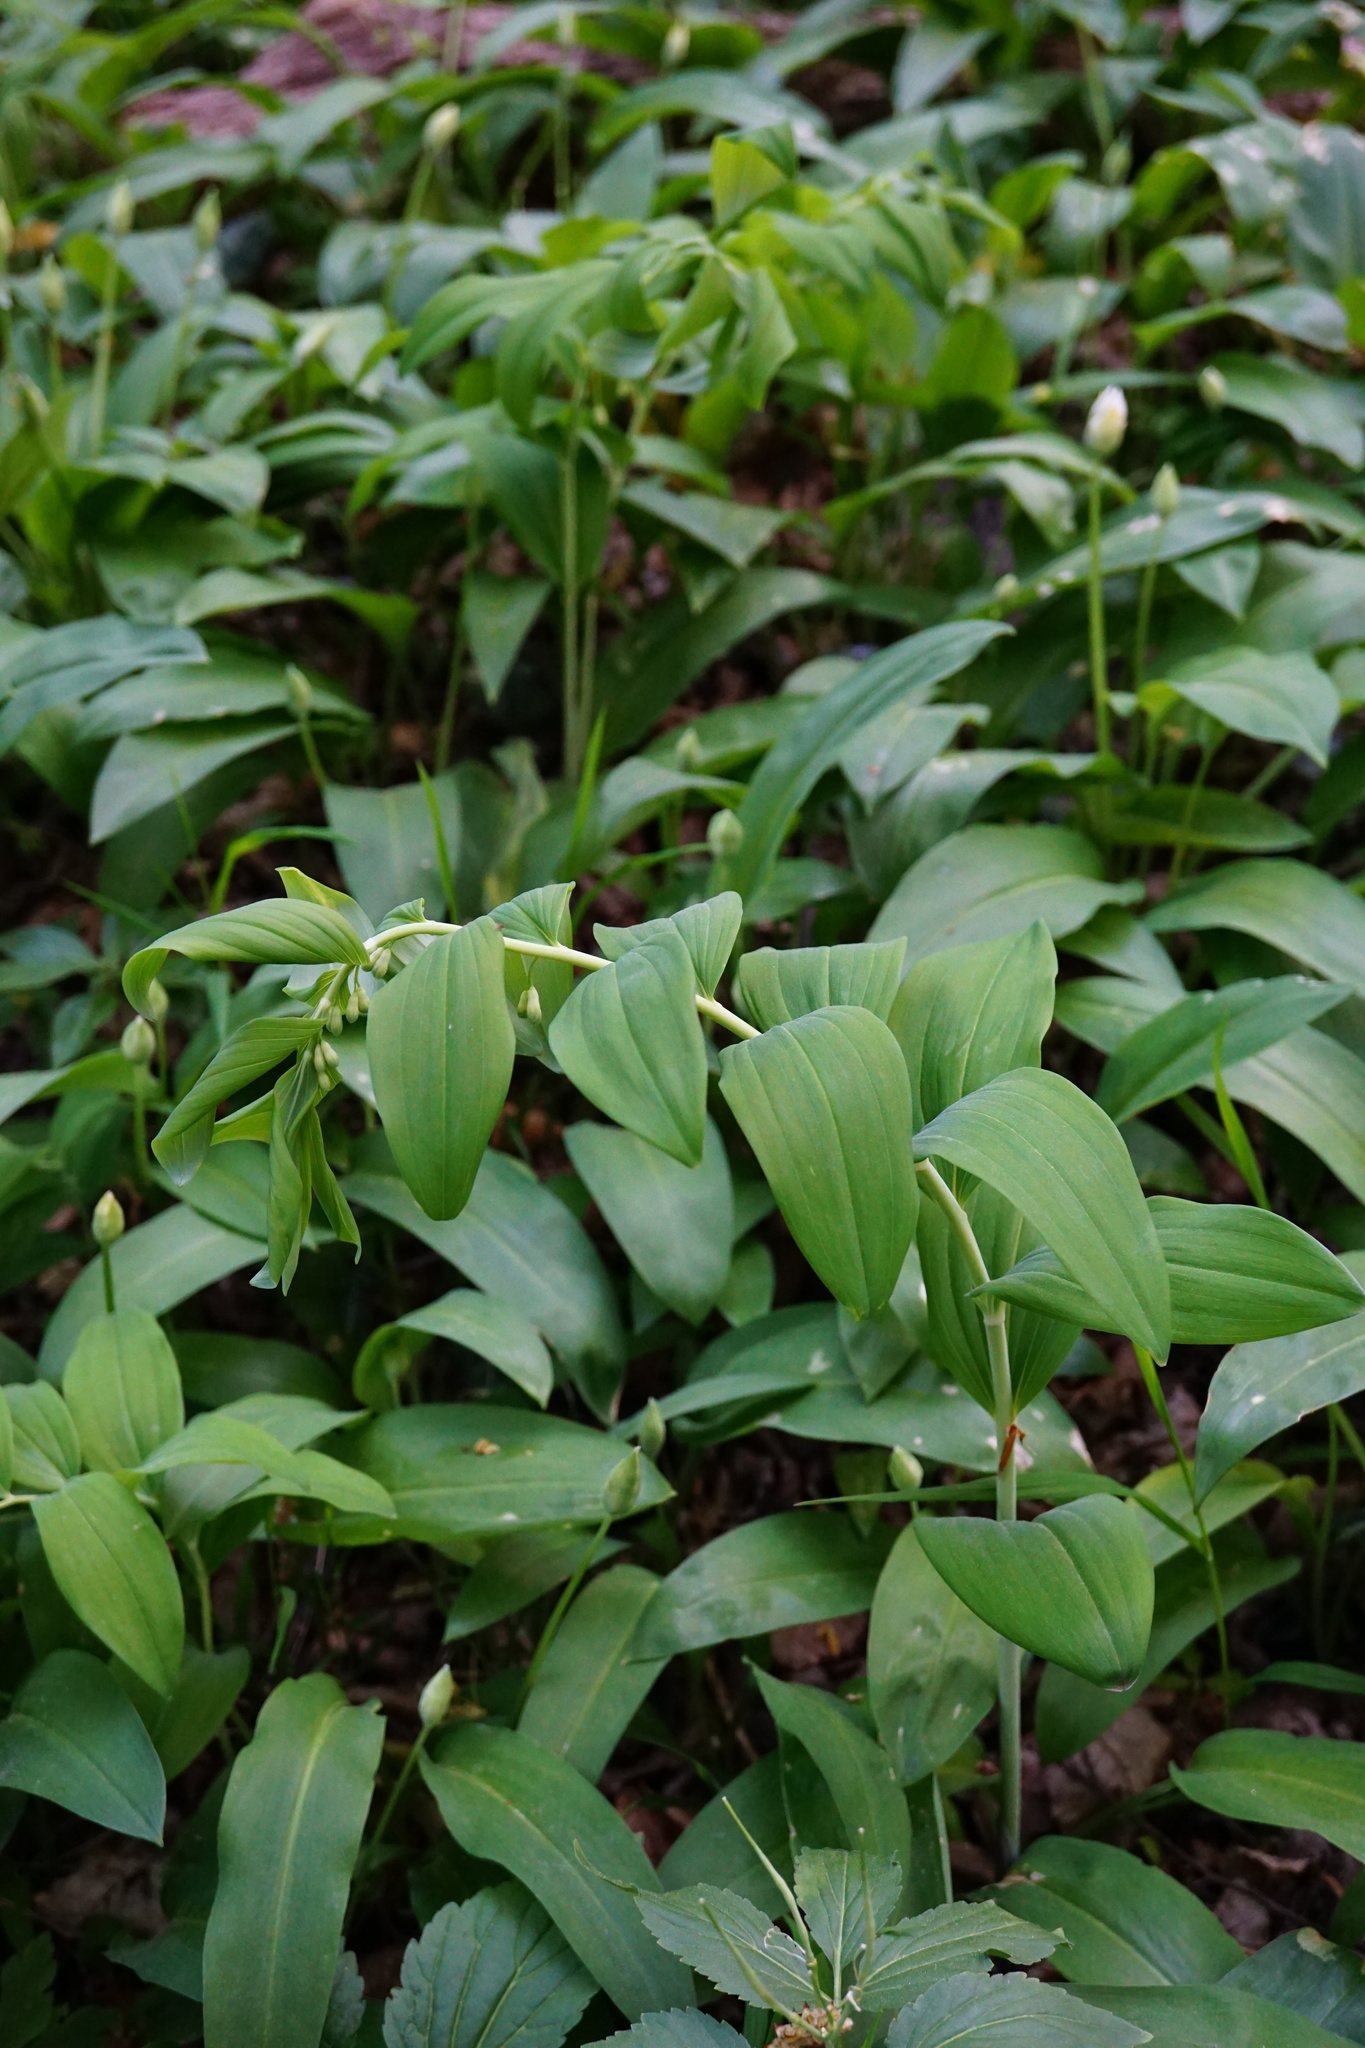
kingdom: Plantae
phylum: Tracheophyta
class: Liliopsida
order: Asparagales
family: Asparagaceae
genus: Polygonatum
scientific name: Polygonatum multiflorum
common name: Solomon's-seal
